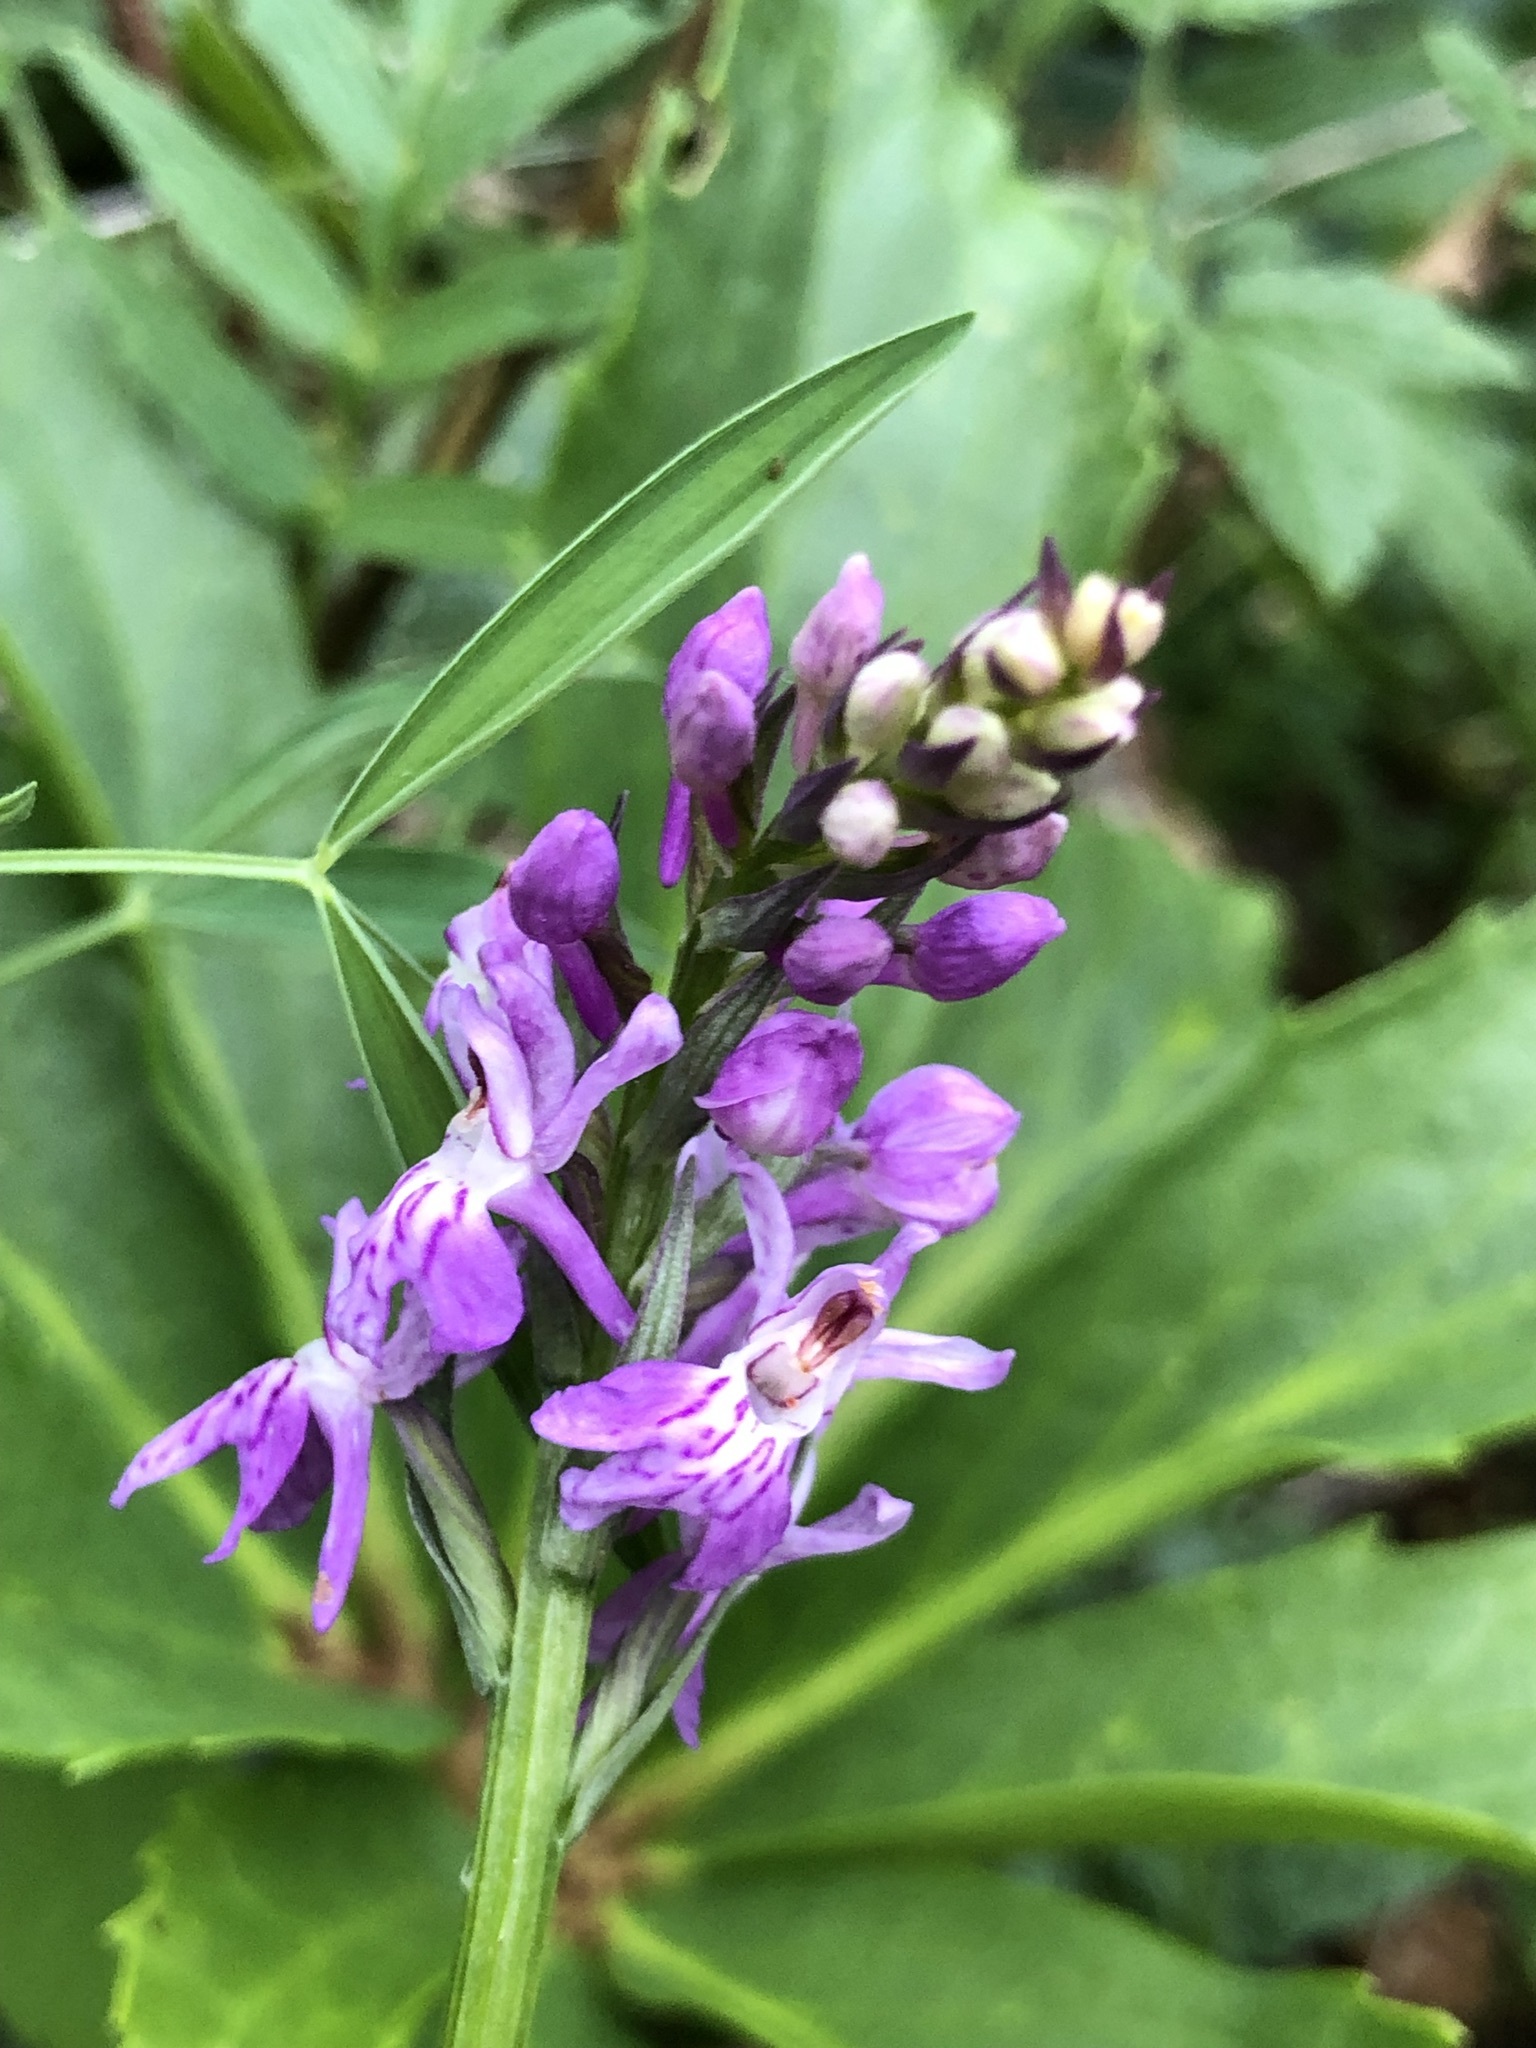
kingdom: Plantae
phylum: Tracheophyta
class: Liliopsida
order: Asparagales
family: Orchidaceae
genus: Dactylorhiza
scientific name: Dactylorhiza maculata
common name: Heath spotted-orchid
